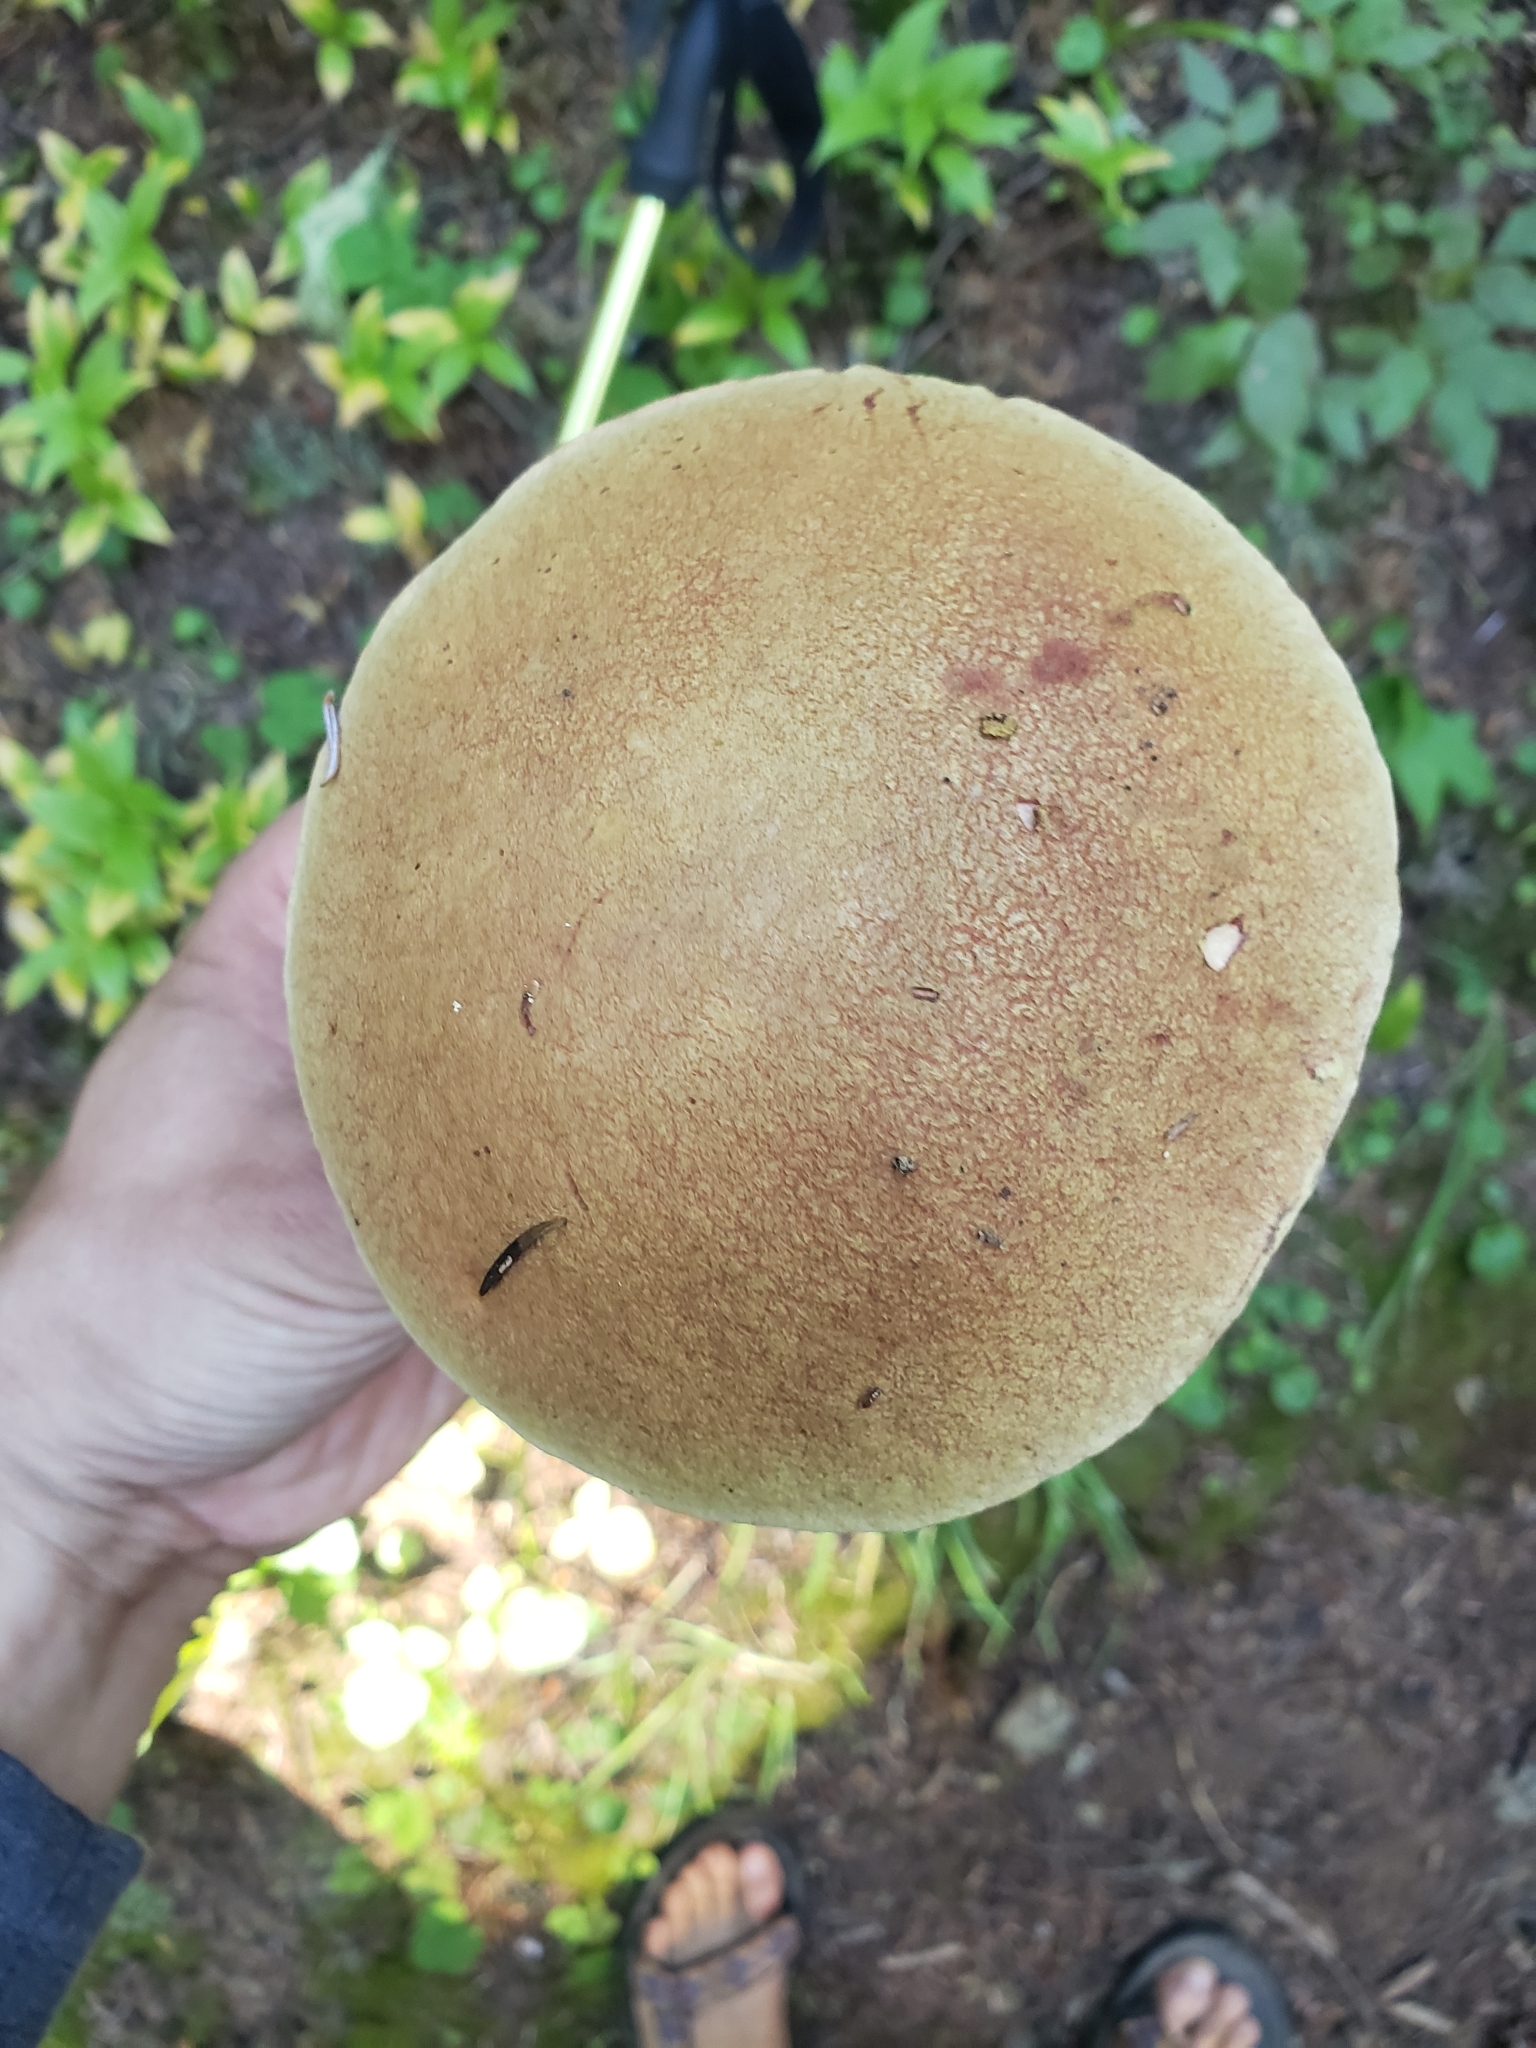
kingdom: Fungi
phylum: Basidiomycota
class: Agaricomycetes
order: Boletales
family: Boletaceae
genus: Boletus
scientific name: Boletus smithii
